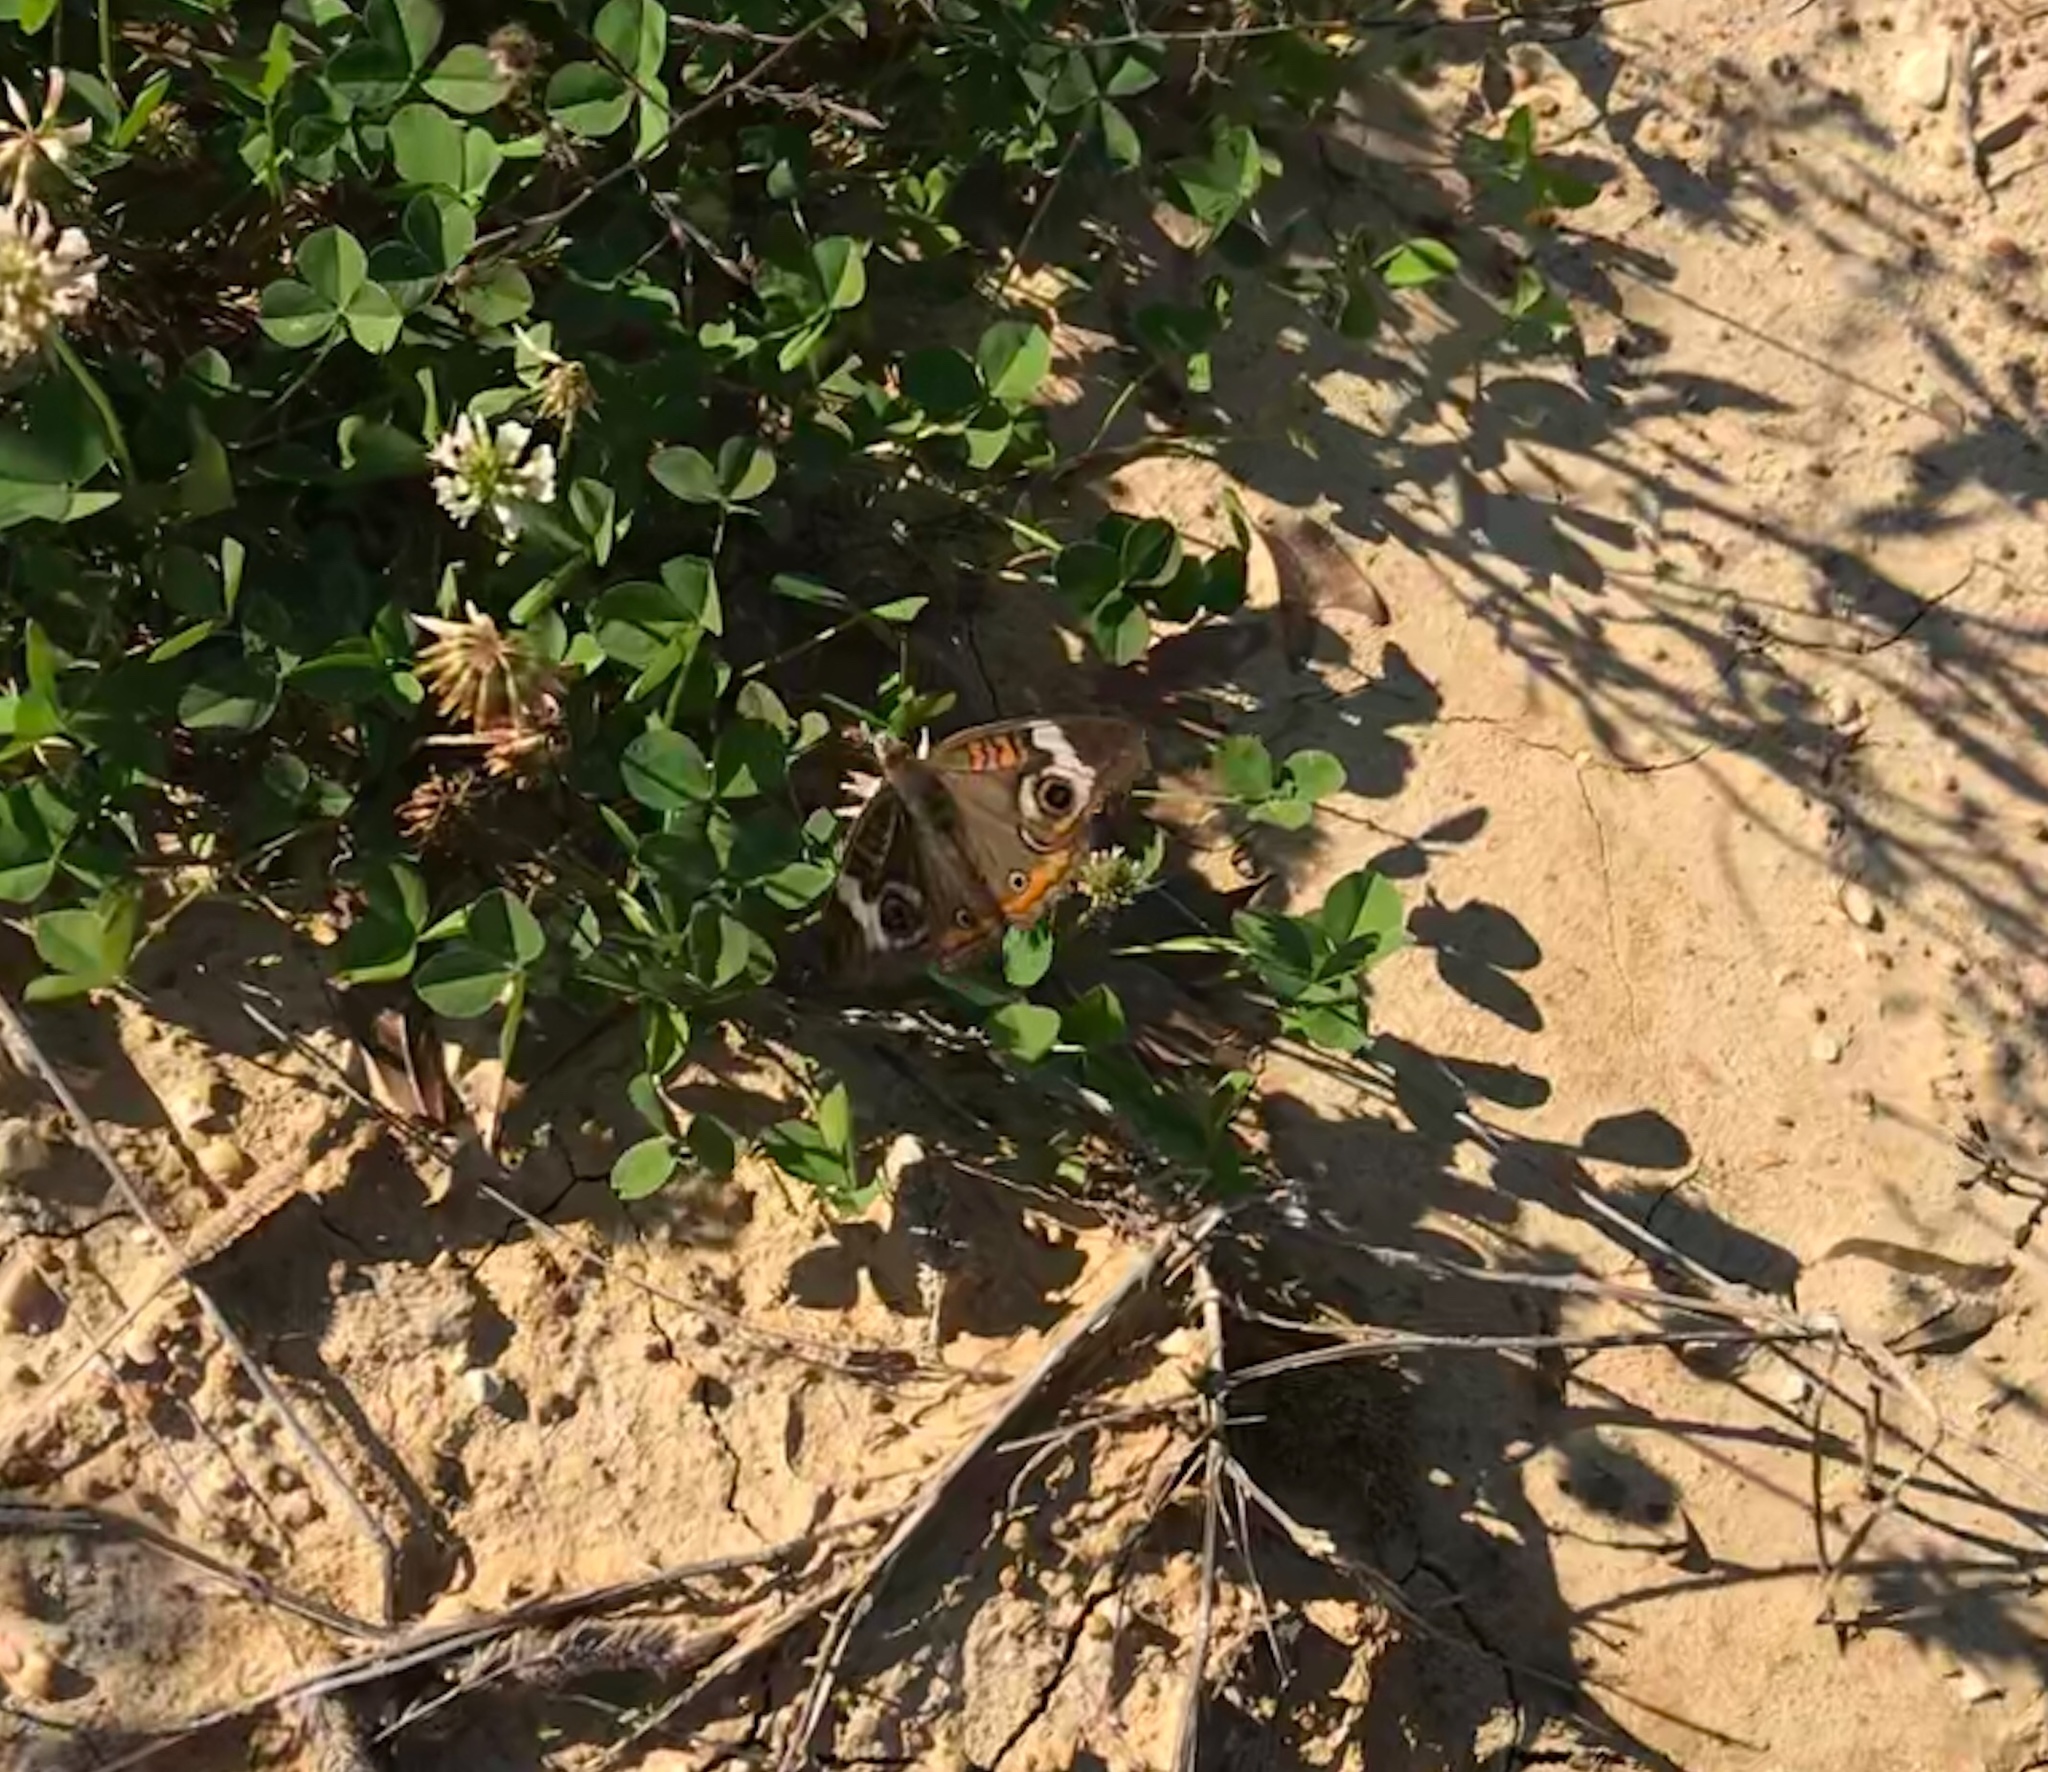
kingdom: Animalia
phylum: Arthropoda
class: Insecta
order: Lepidoptera
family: Nymphalidae
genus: Junonia
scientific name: Junonia coenia
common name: Common buckeye
